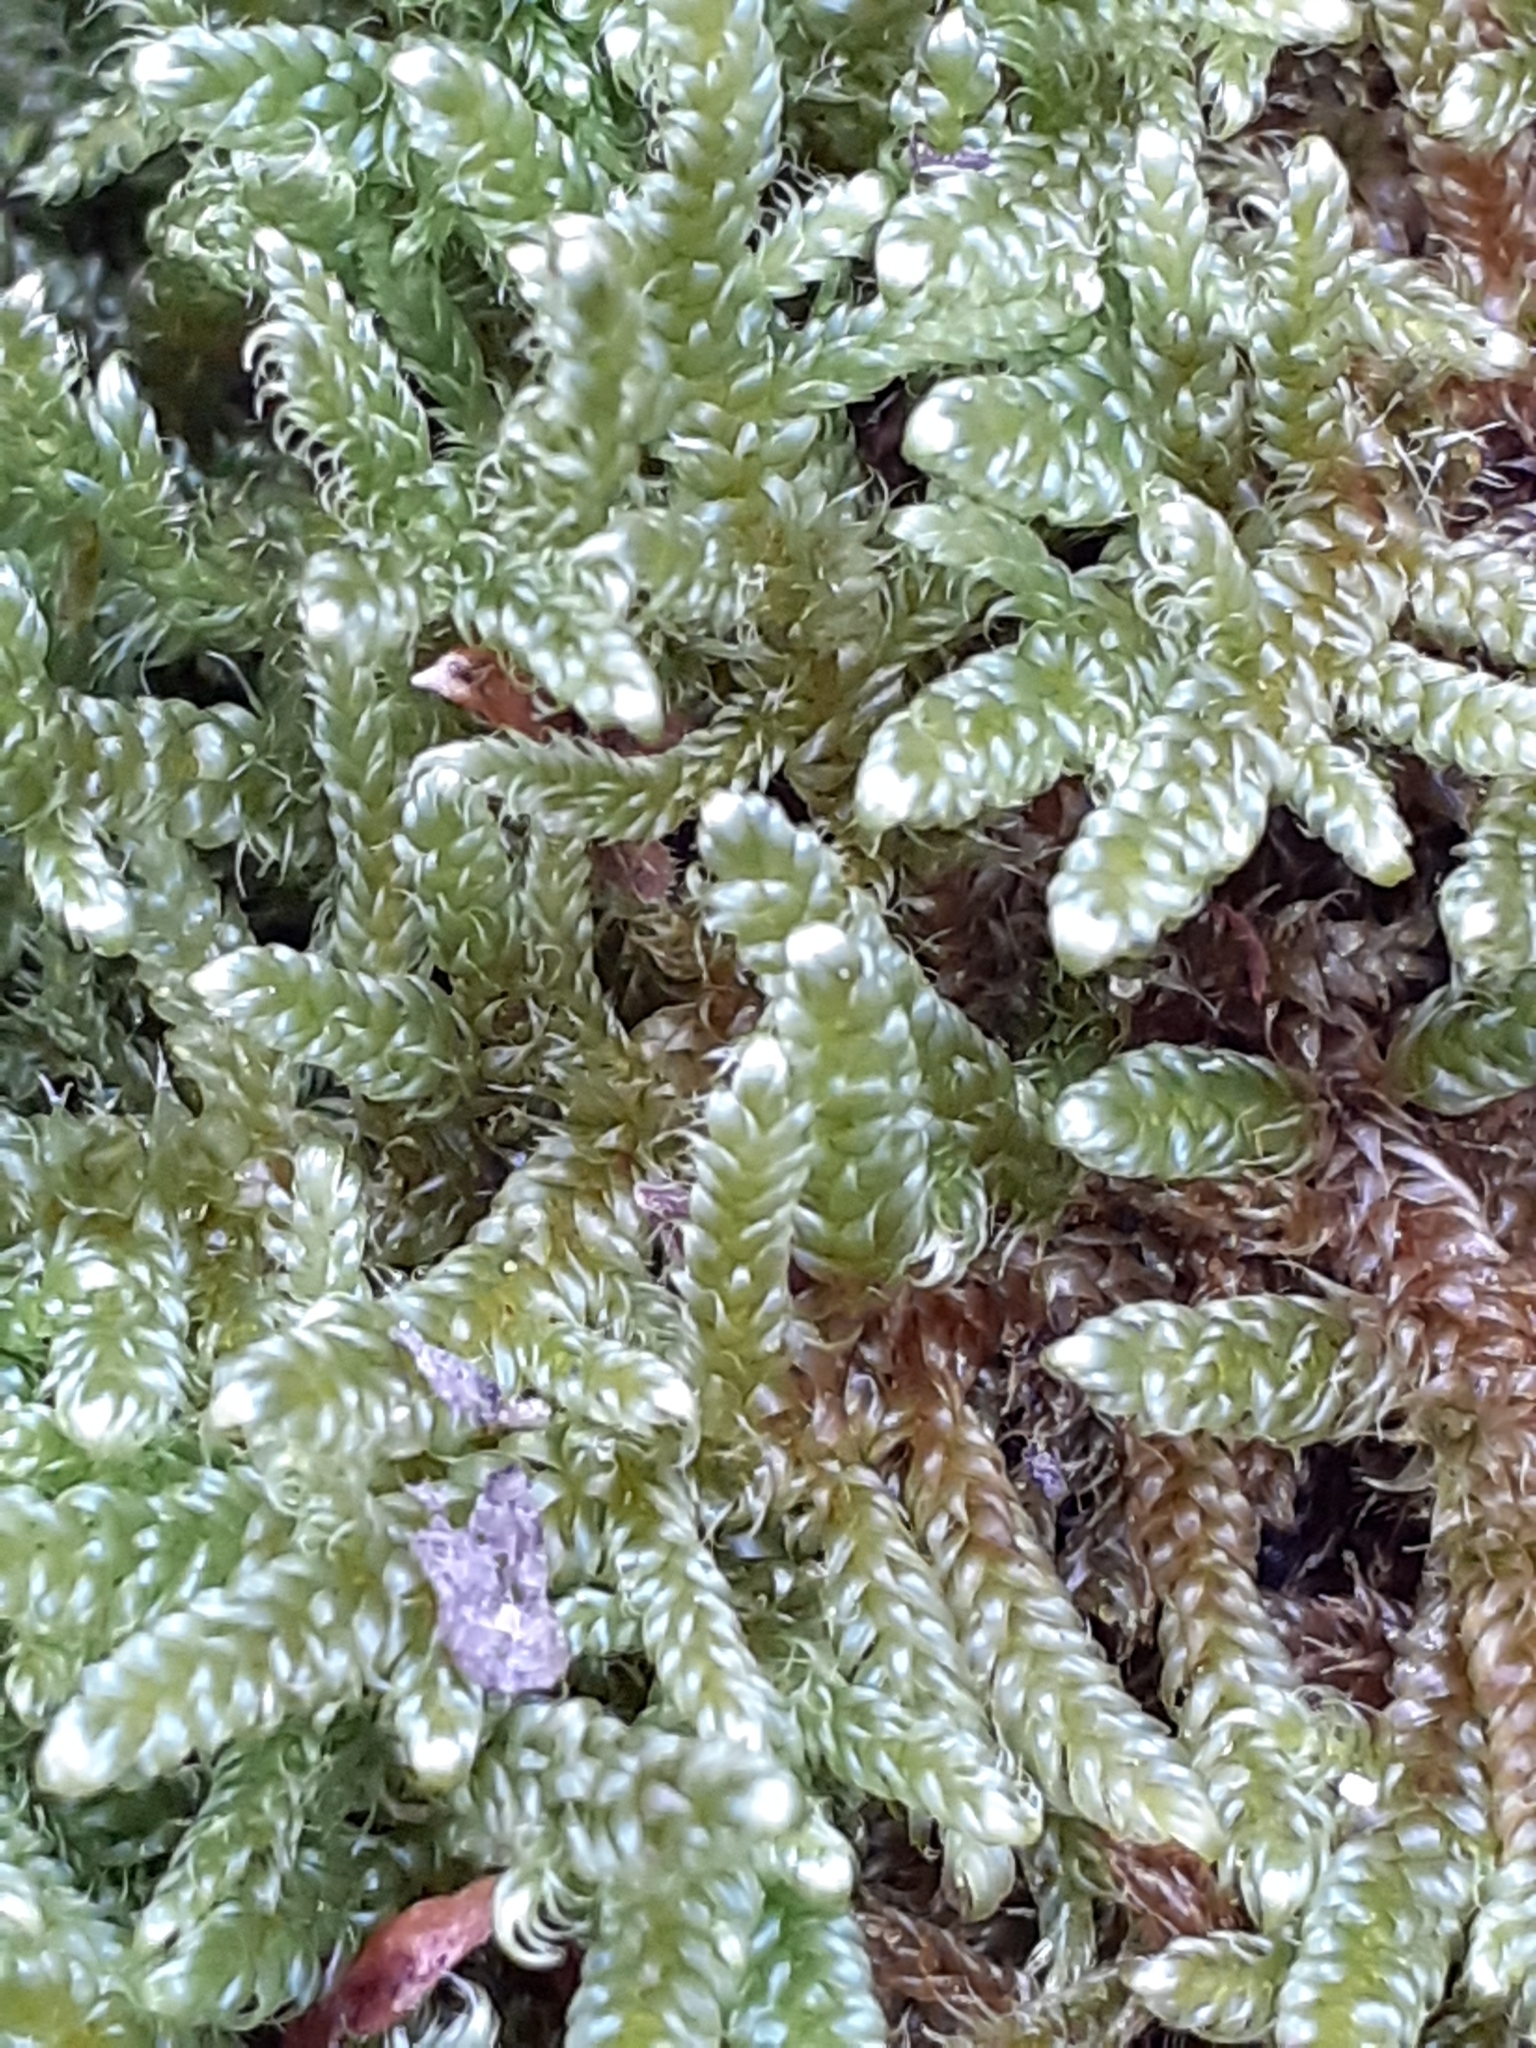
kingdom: Plantae
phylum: Bryophyta
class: Bryopsida
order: Hypnales
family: Hypnaceae
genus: Hypnum
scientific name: Hypnum cupressiforme
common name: Cypress-leaved plait-moss
